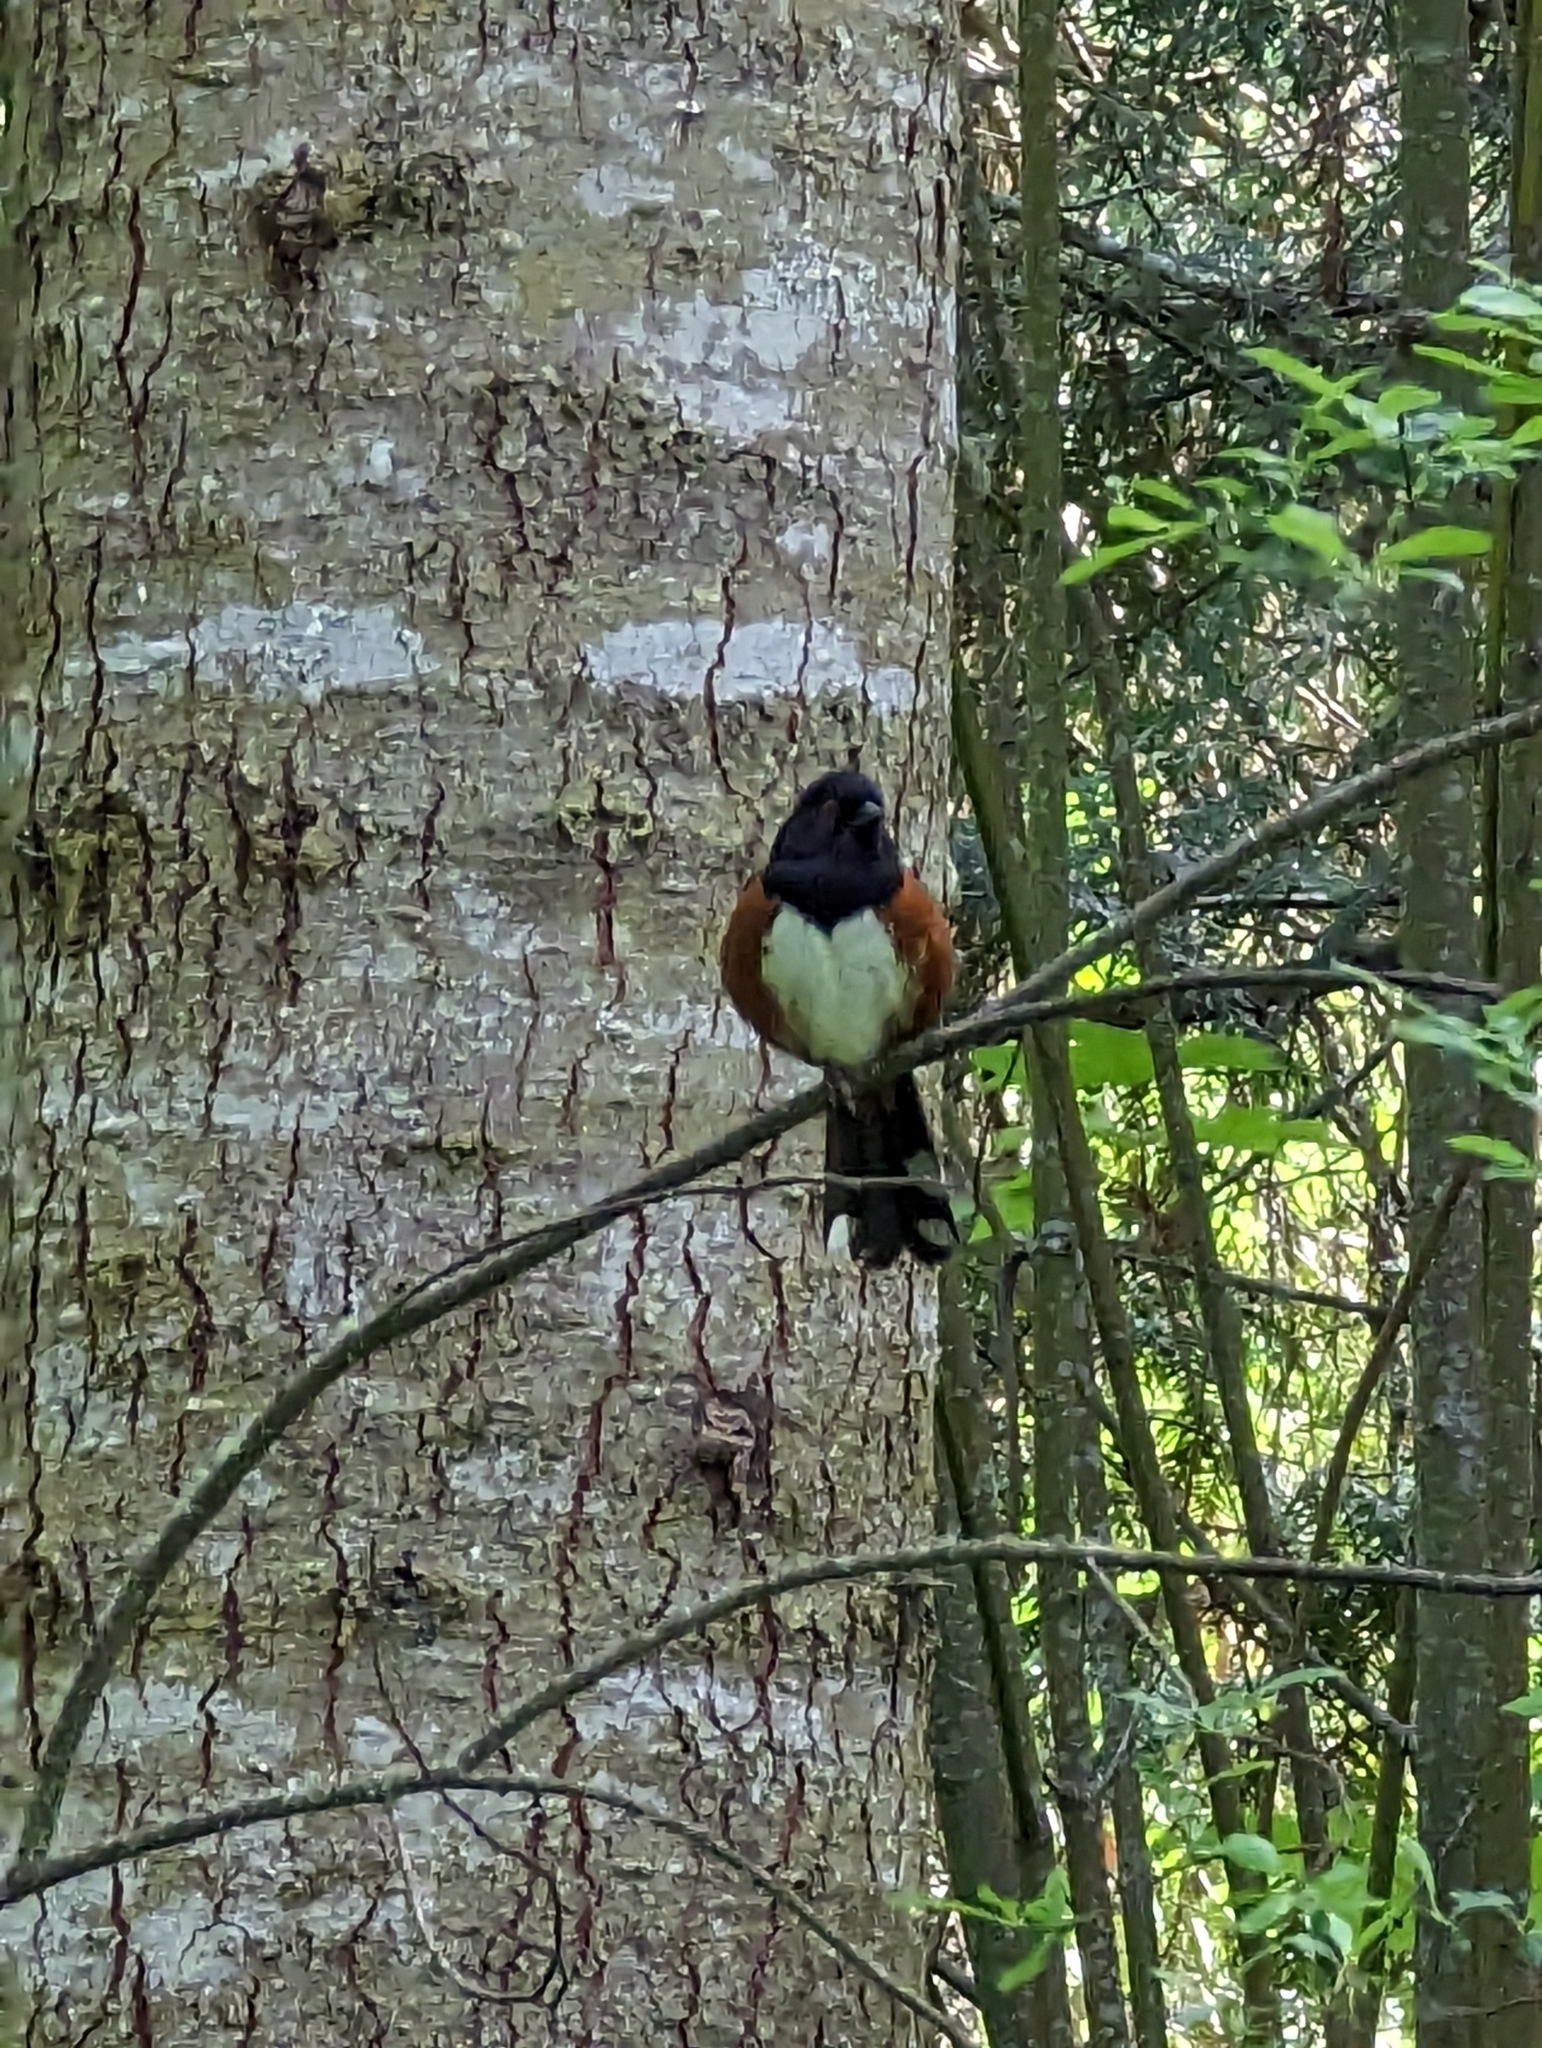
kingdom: Animalia
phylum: Chordata
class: Aves
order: Passeriformes
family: Passerellidae
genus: Pipilo
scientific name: Pipilo maculatus
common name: Spotted towhee
